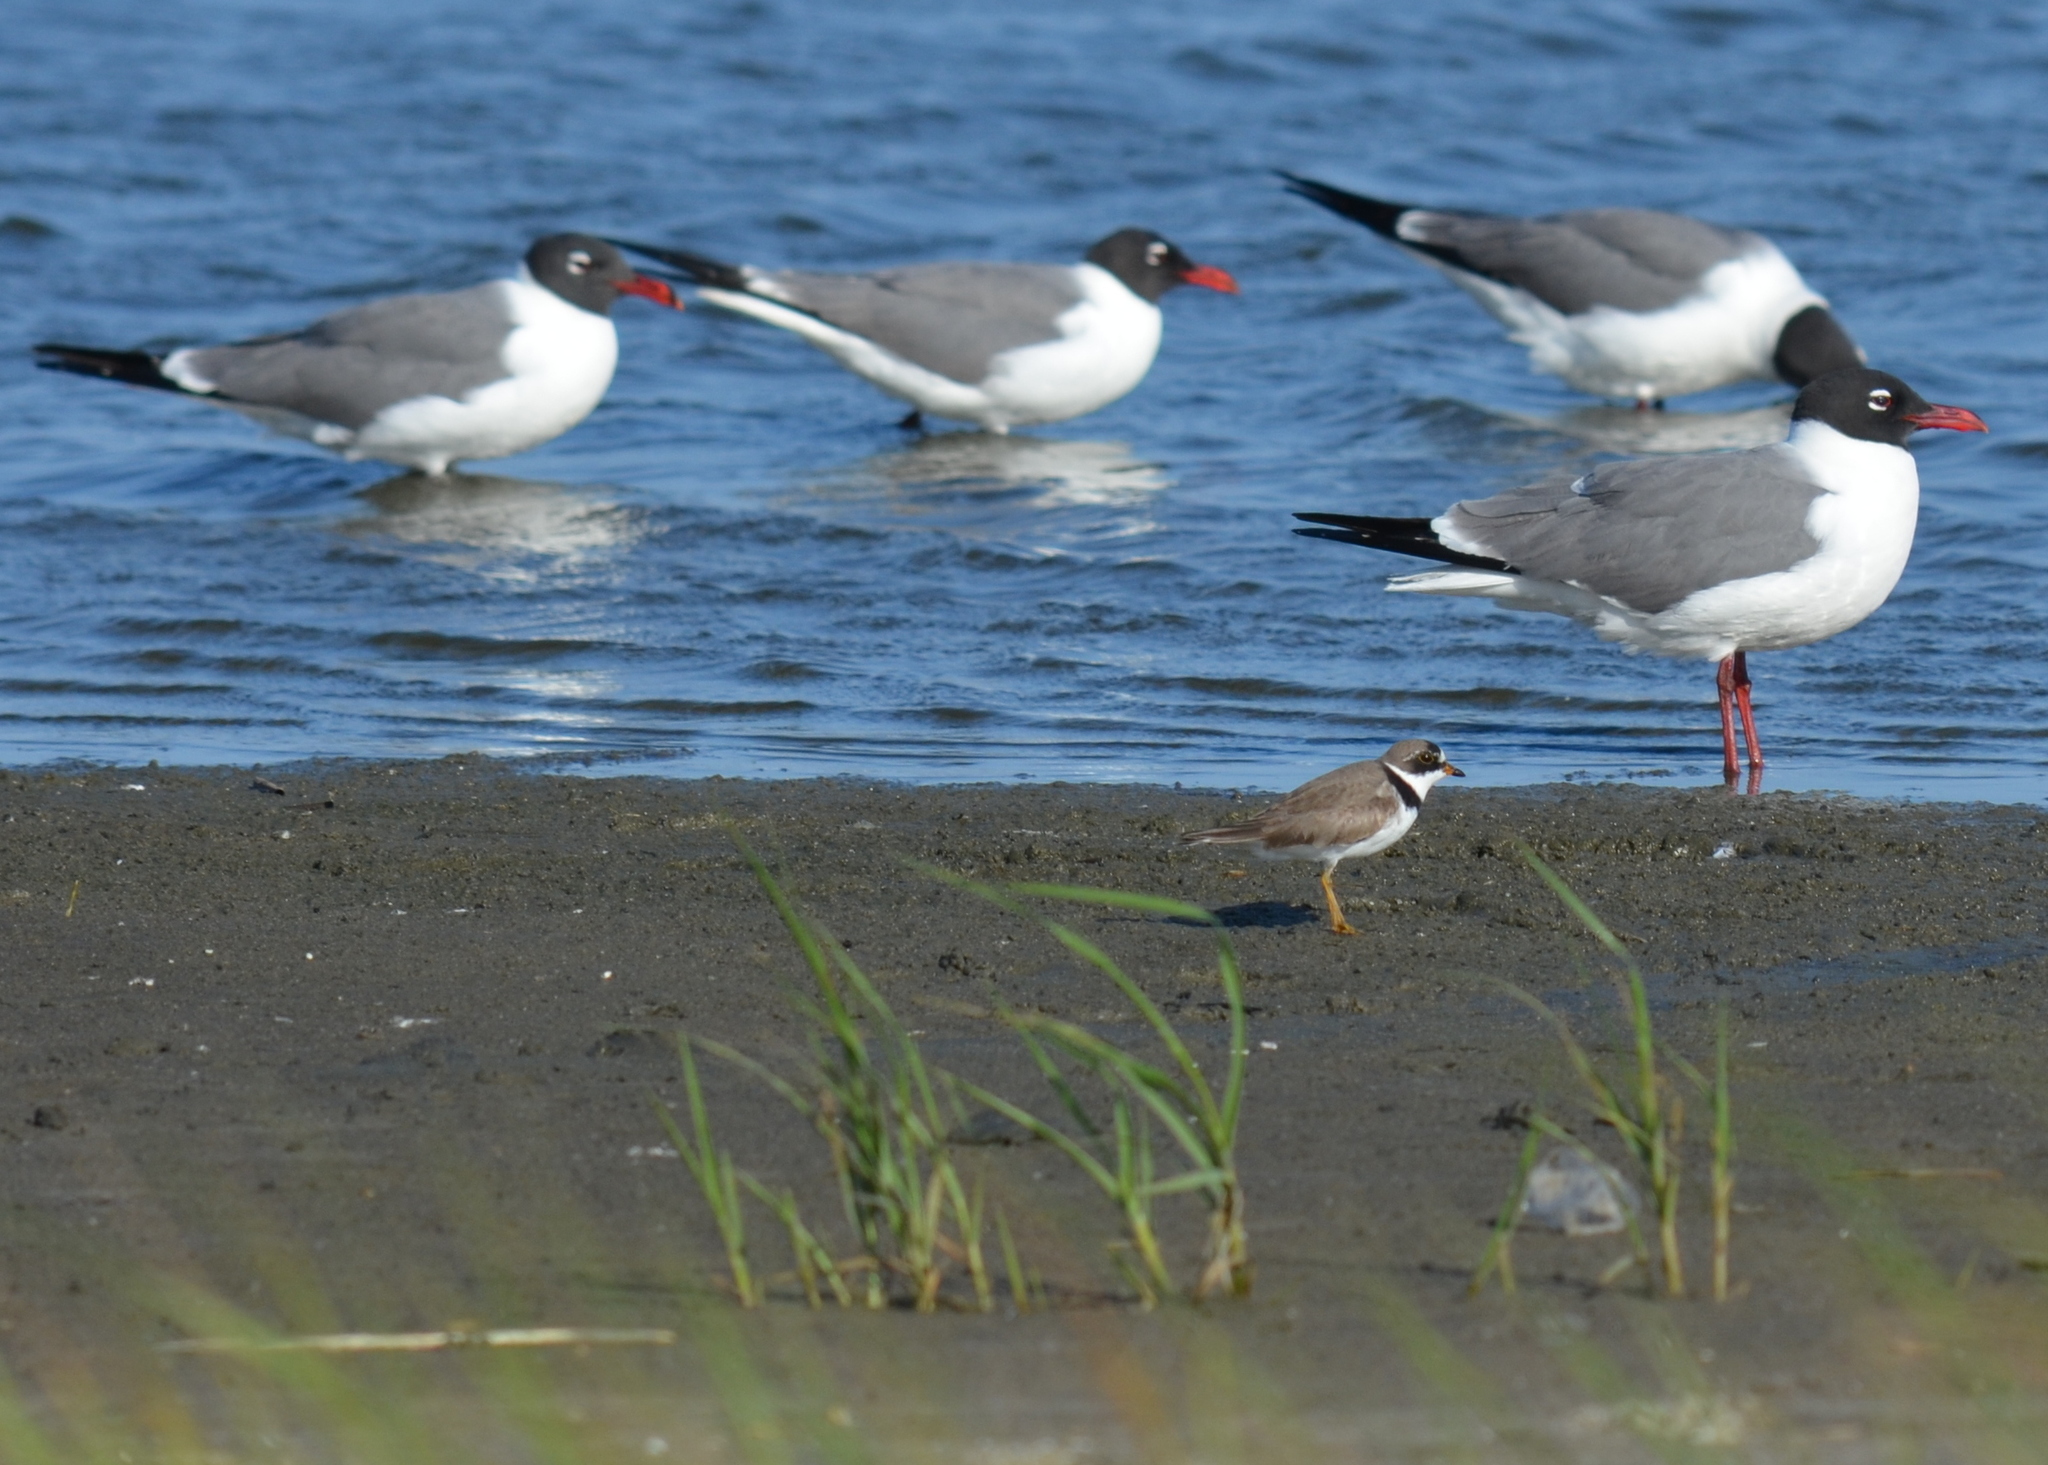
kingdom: Animalia
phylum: Chordata
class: Aves
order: Charadriiformes
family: Charadriidae
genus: Charadrius
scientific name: Charadrius semipalmatus
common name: Semipalmated plover
